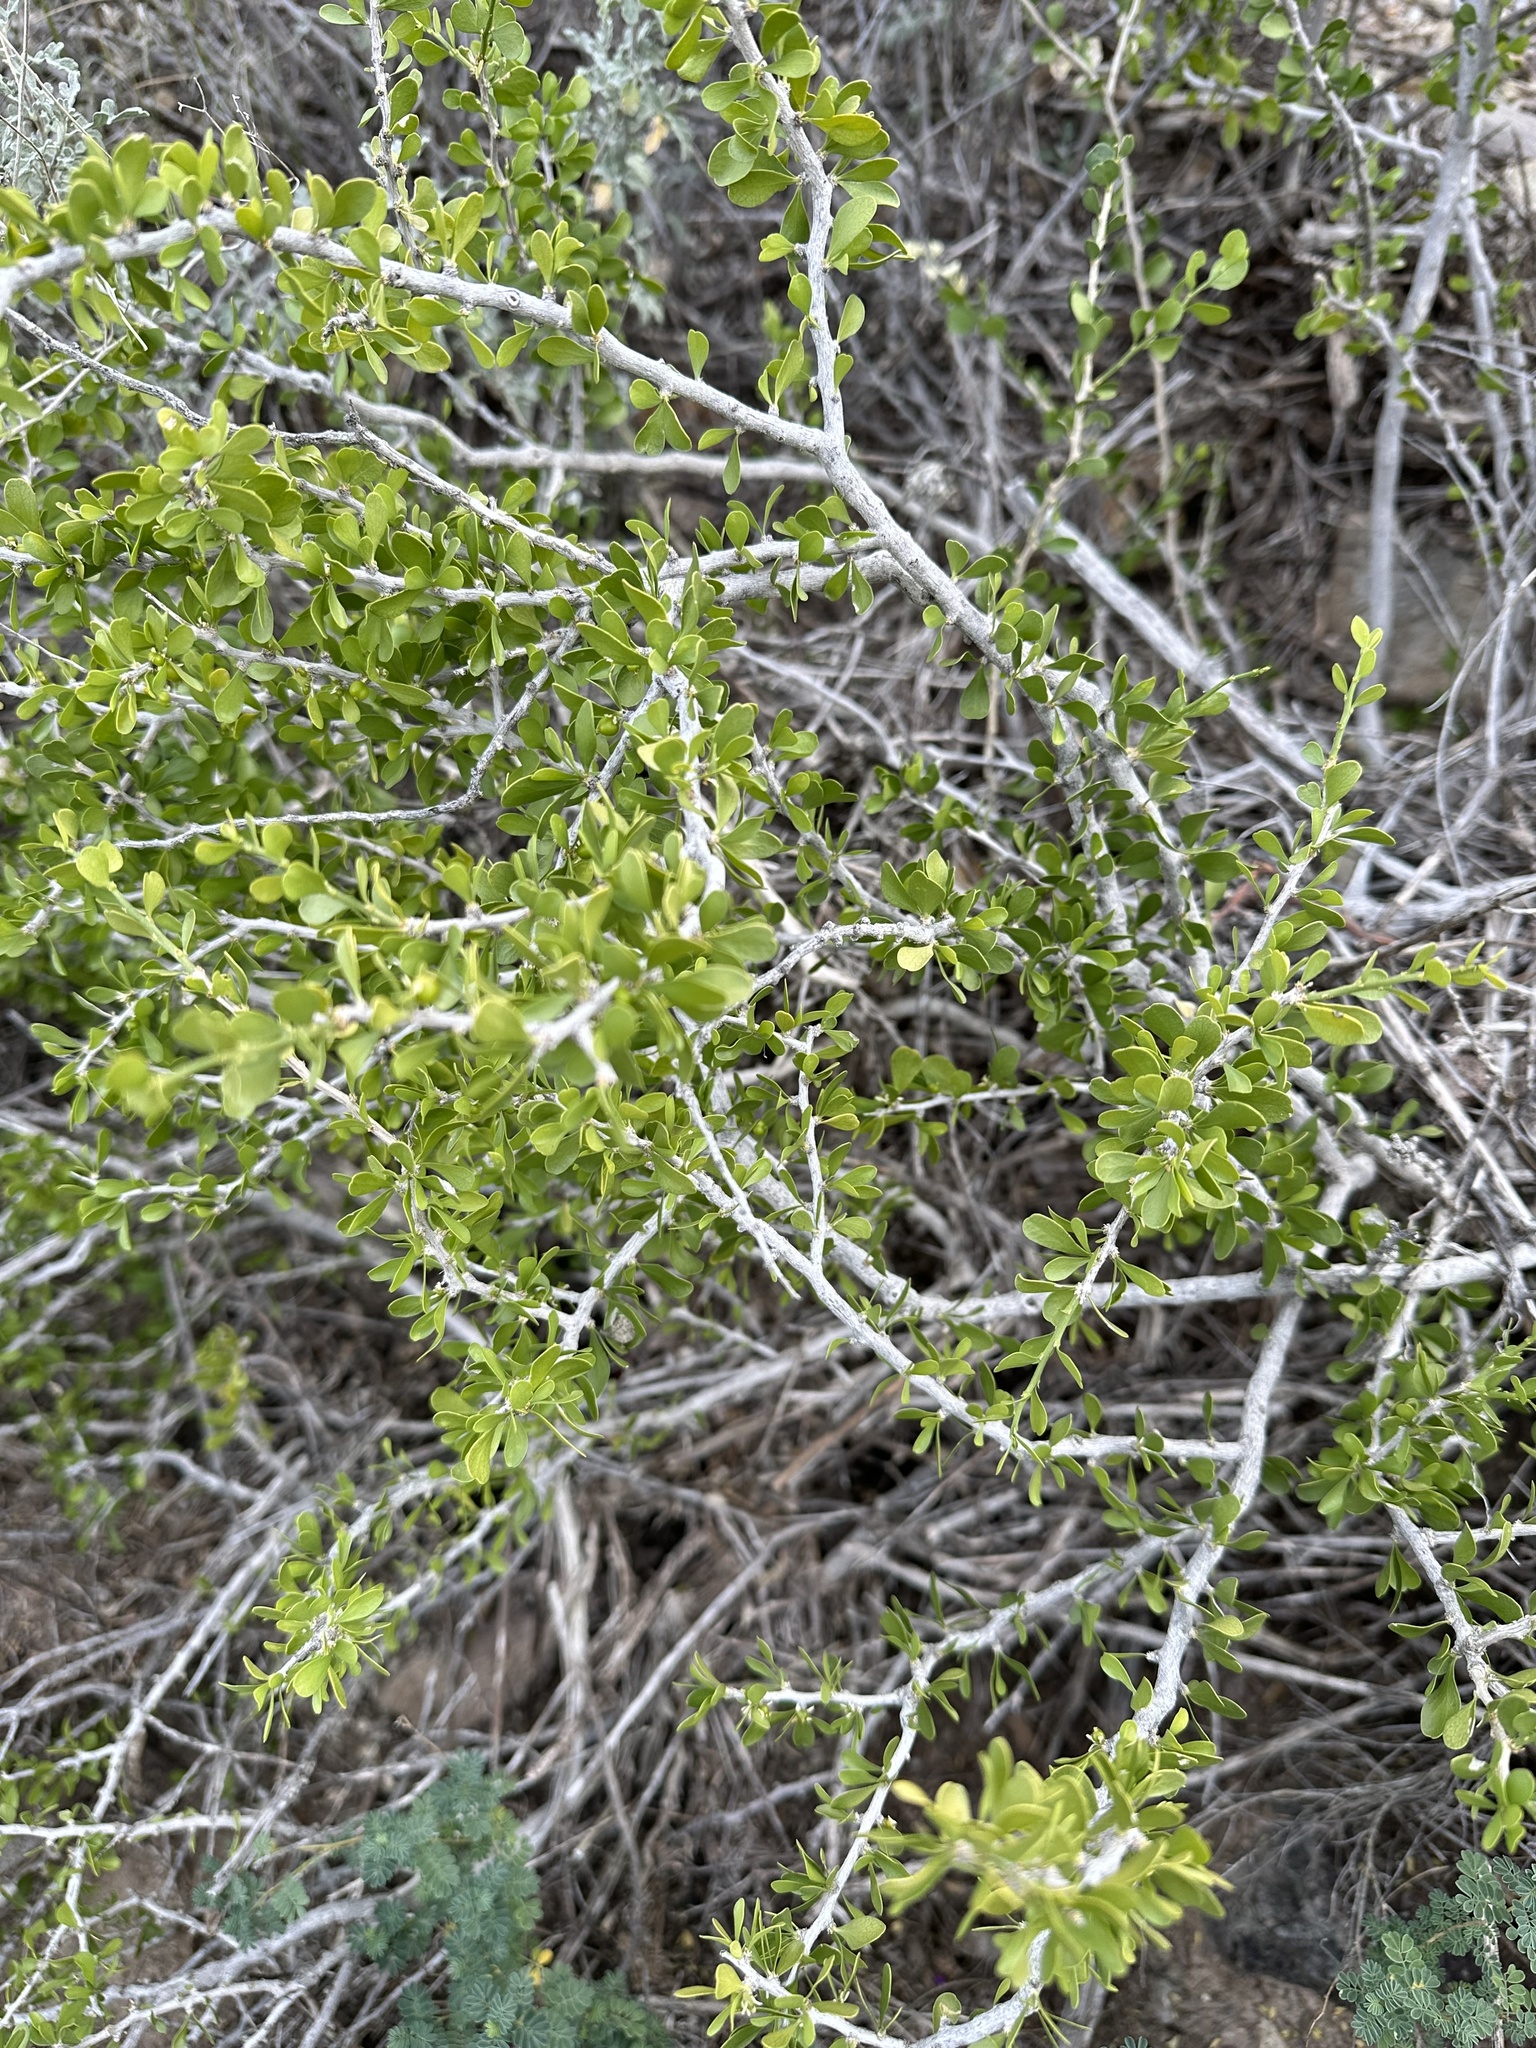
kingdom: Plantae
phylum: Tracheophyta
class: Magnoliopsida
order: Celastrales
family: Celastraceae
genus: Schaefferia
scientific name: Schaefferia cuneifolia
